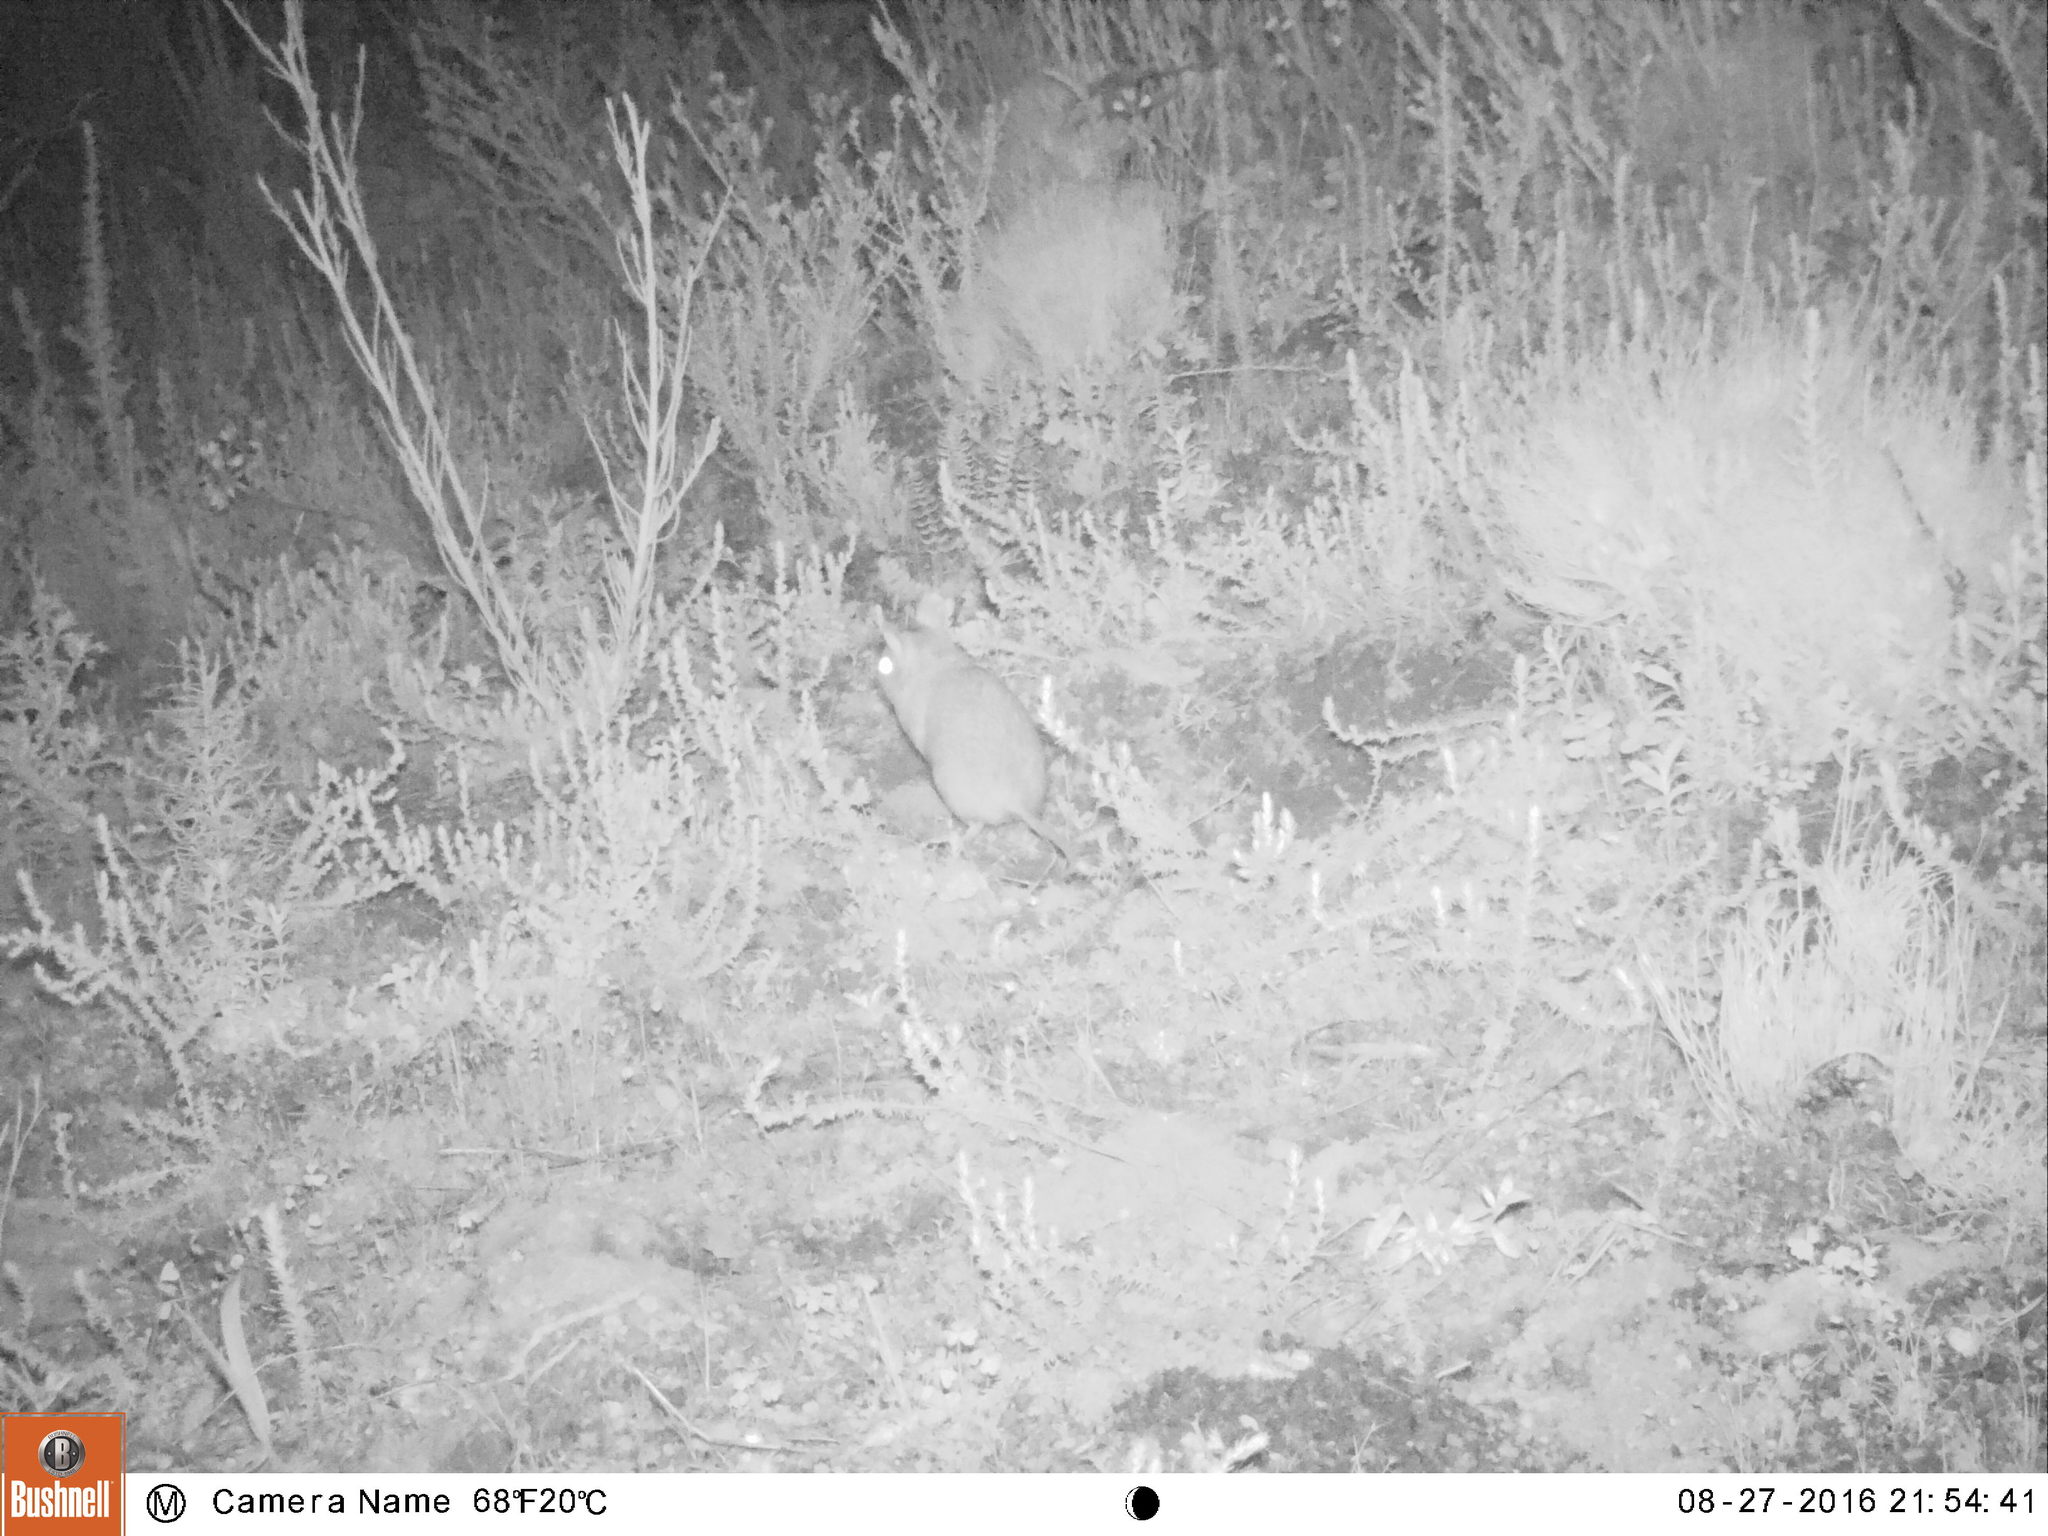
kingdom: Animalia
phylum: Chordata
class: Mammalia
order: Rodentia
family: Muridae
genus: Gerbilliscus
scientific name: Gerbilliscus afer
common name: Cape gerbil
